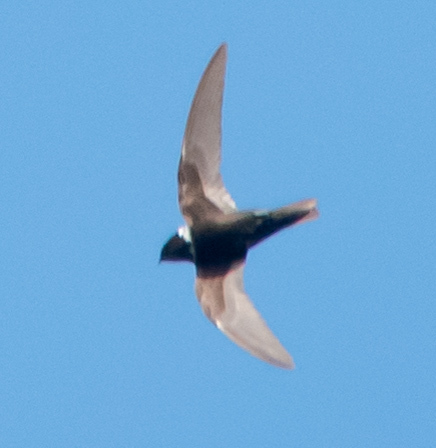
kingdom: Animalia
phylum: Chordata
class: Aves
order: Apodiformes
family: Apodidae
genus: Streptoprocne
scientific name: Streptoprocne zonaris
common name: White-collared swift
